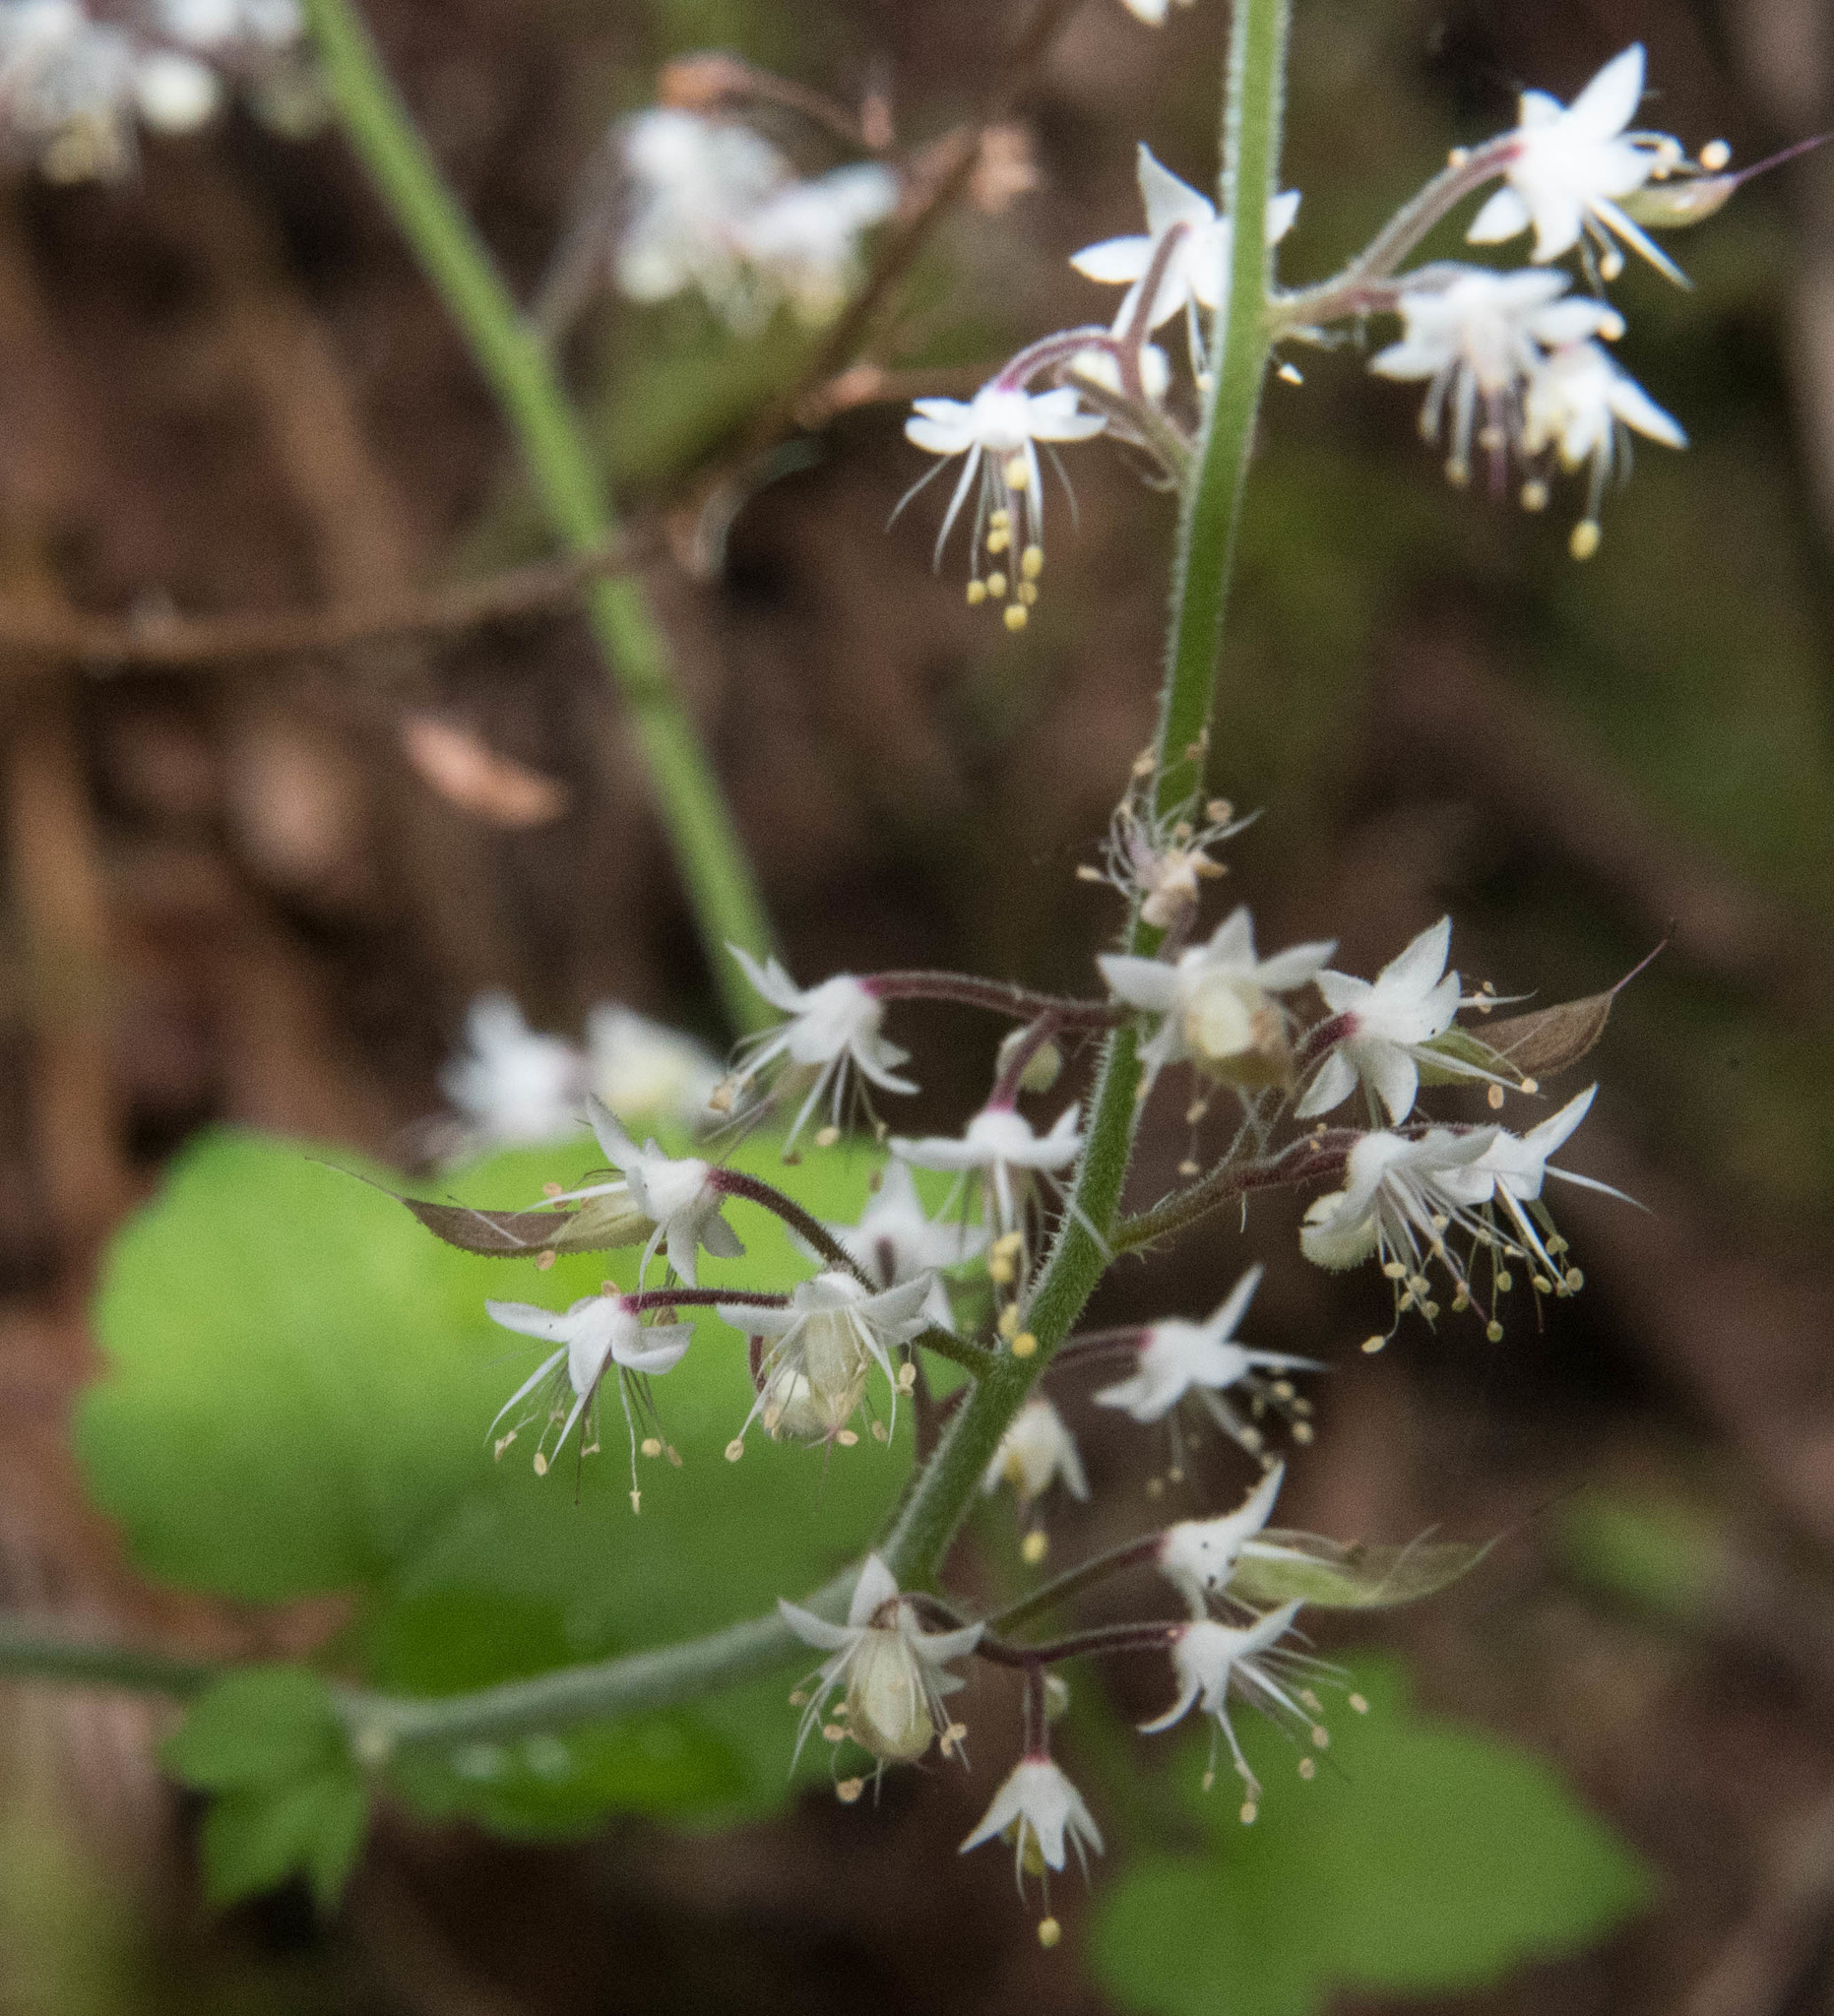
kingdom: Plantae
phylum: Tracheophyta
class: Magnoliopsida
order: Saxifragales
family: Saxifragaceae
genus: Tiarella
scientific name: Tiarella trifoliata
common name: Sugar-scoop
